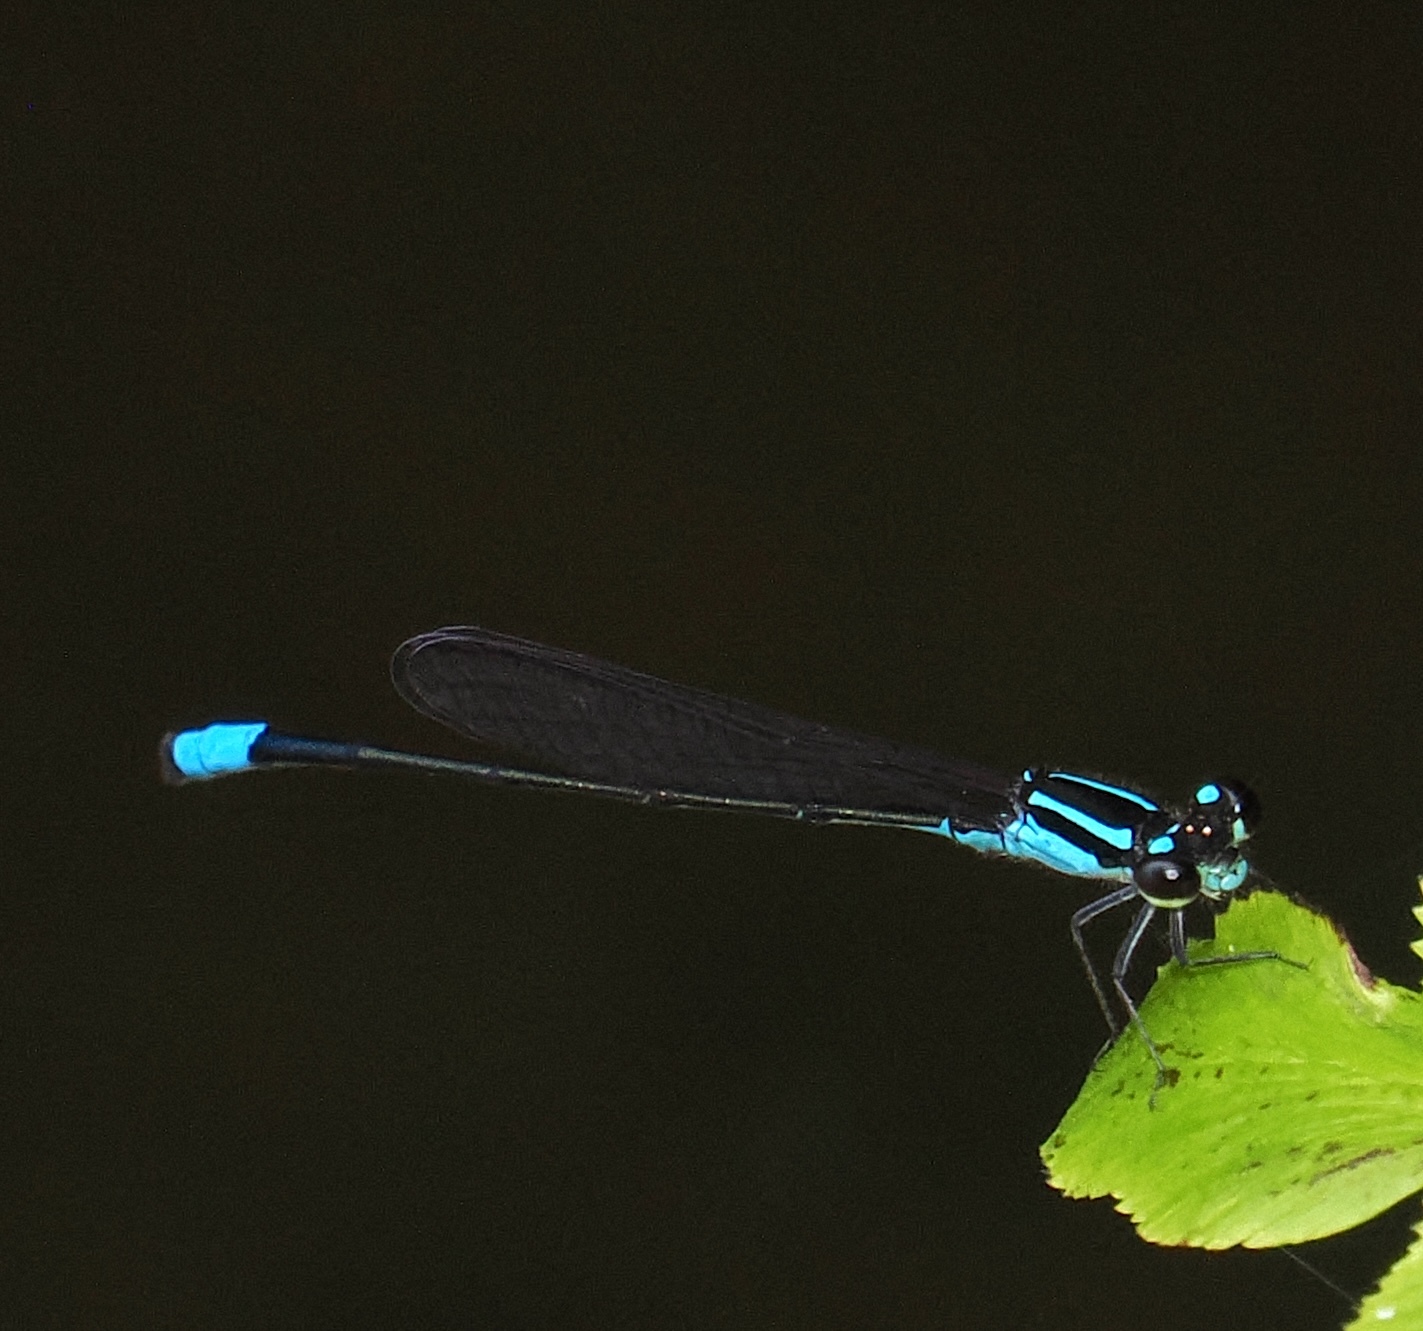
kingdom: Animalia
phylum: Arthropoda
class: Insecta
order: Odonata
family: Coenagrionidae
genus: Acanthagrion
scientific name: Acanthagrion gracile
